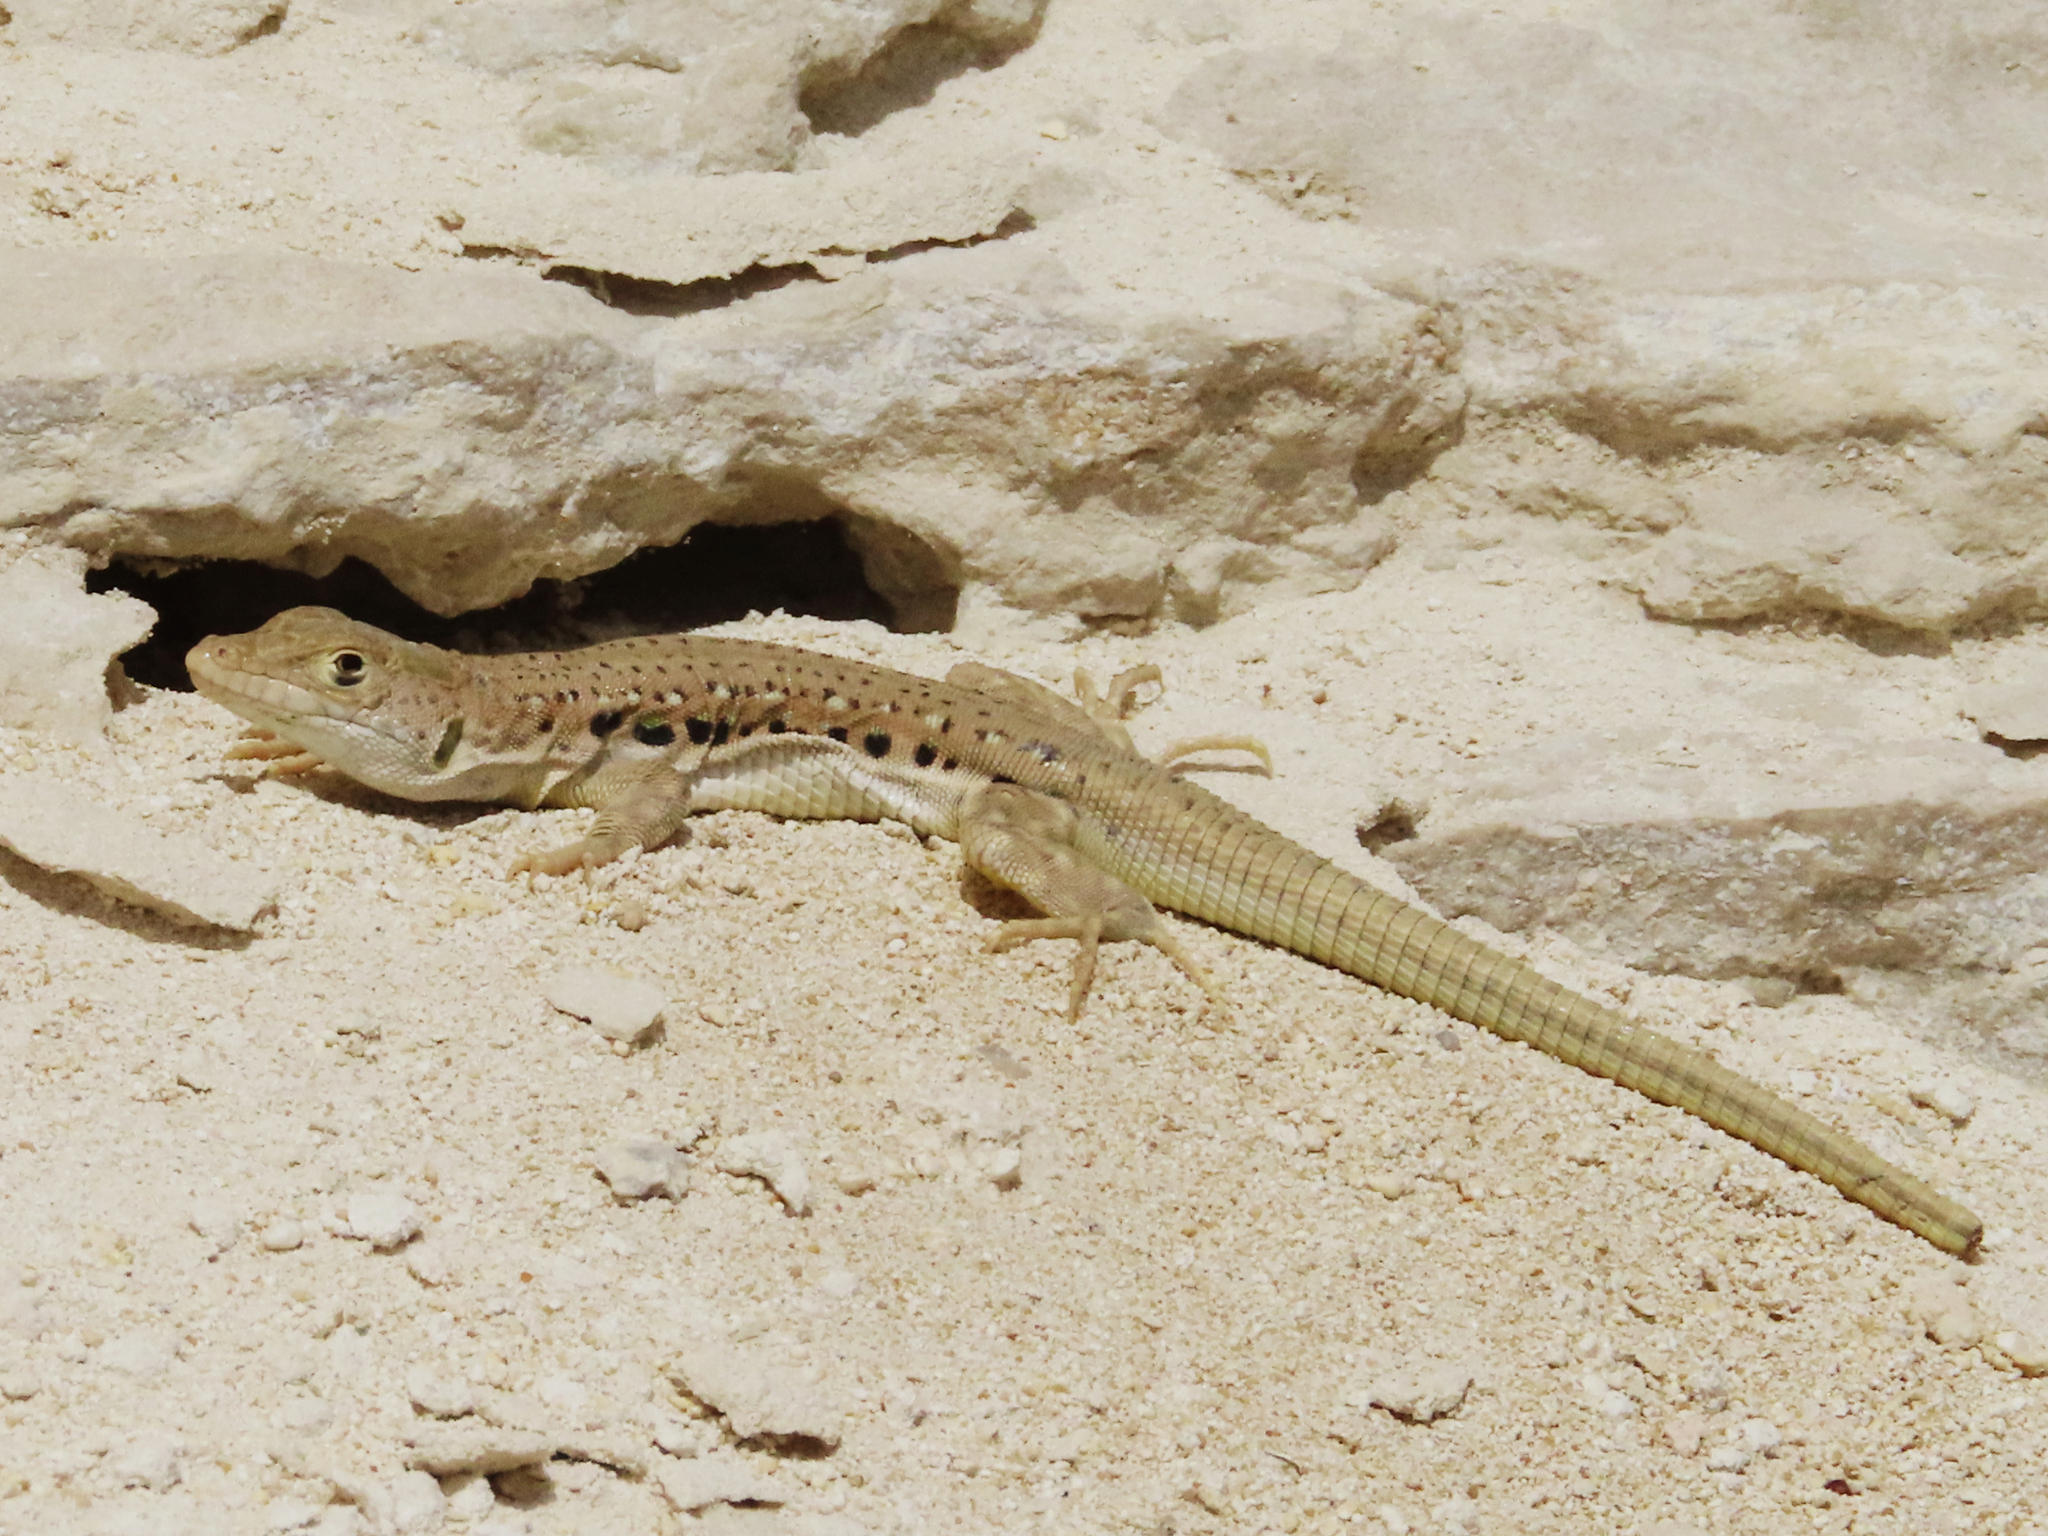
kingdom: Animalia
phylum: Chordata
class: Squamata
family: Lacertidae
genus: Eremias
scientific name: Eremias velox
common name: Central asian racerunner
